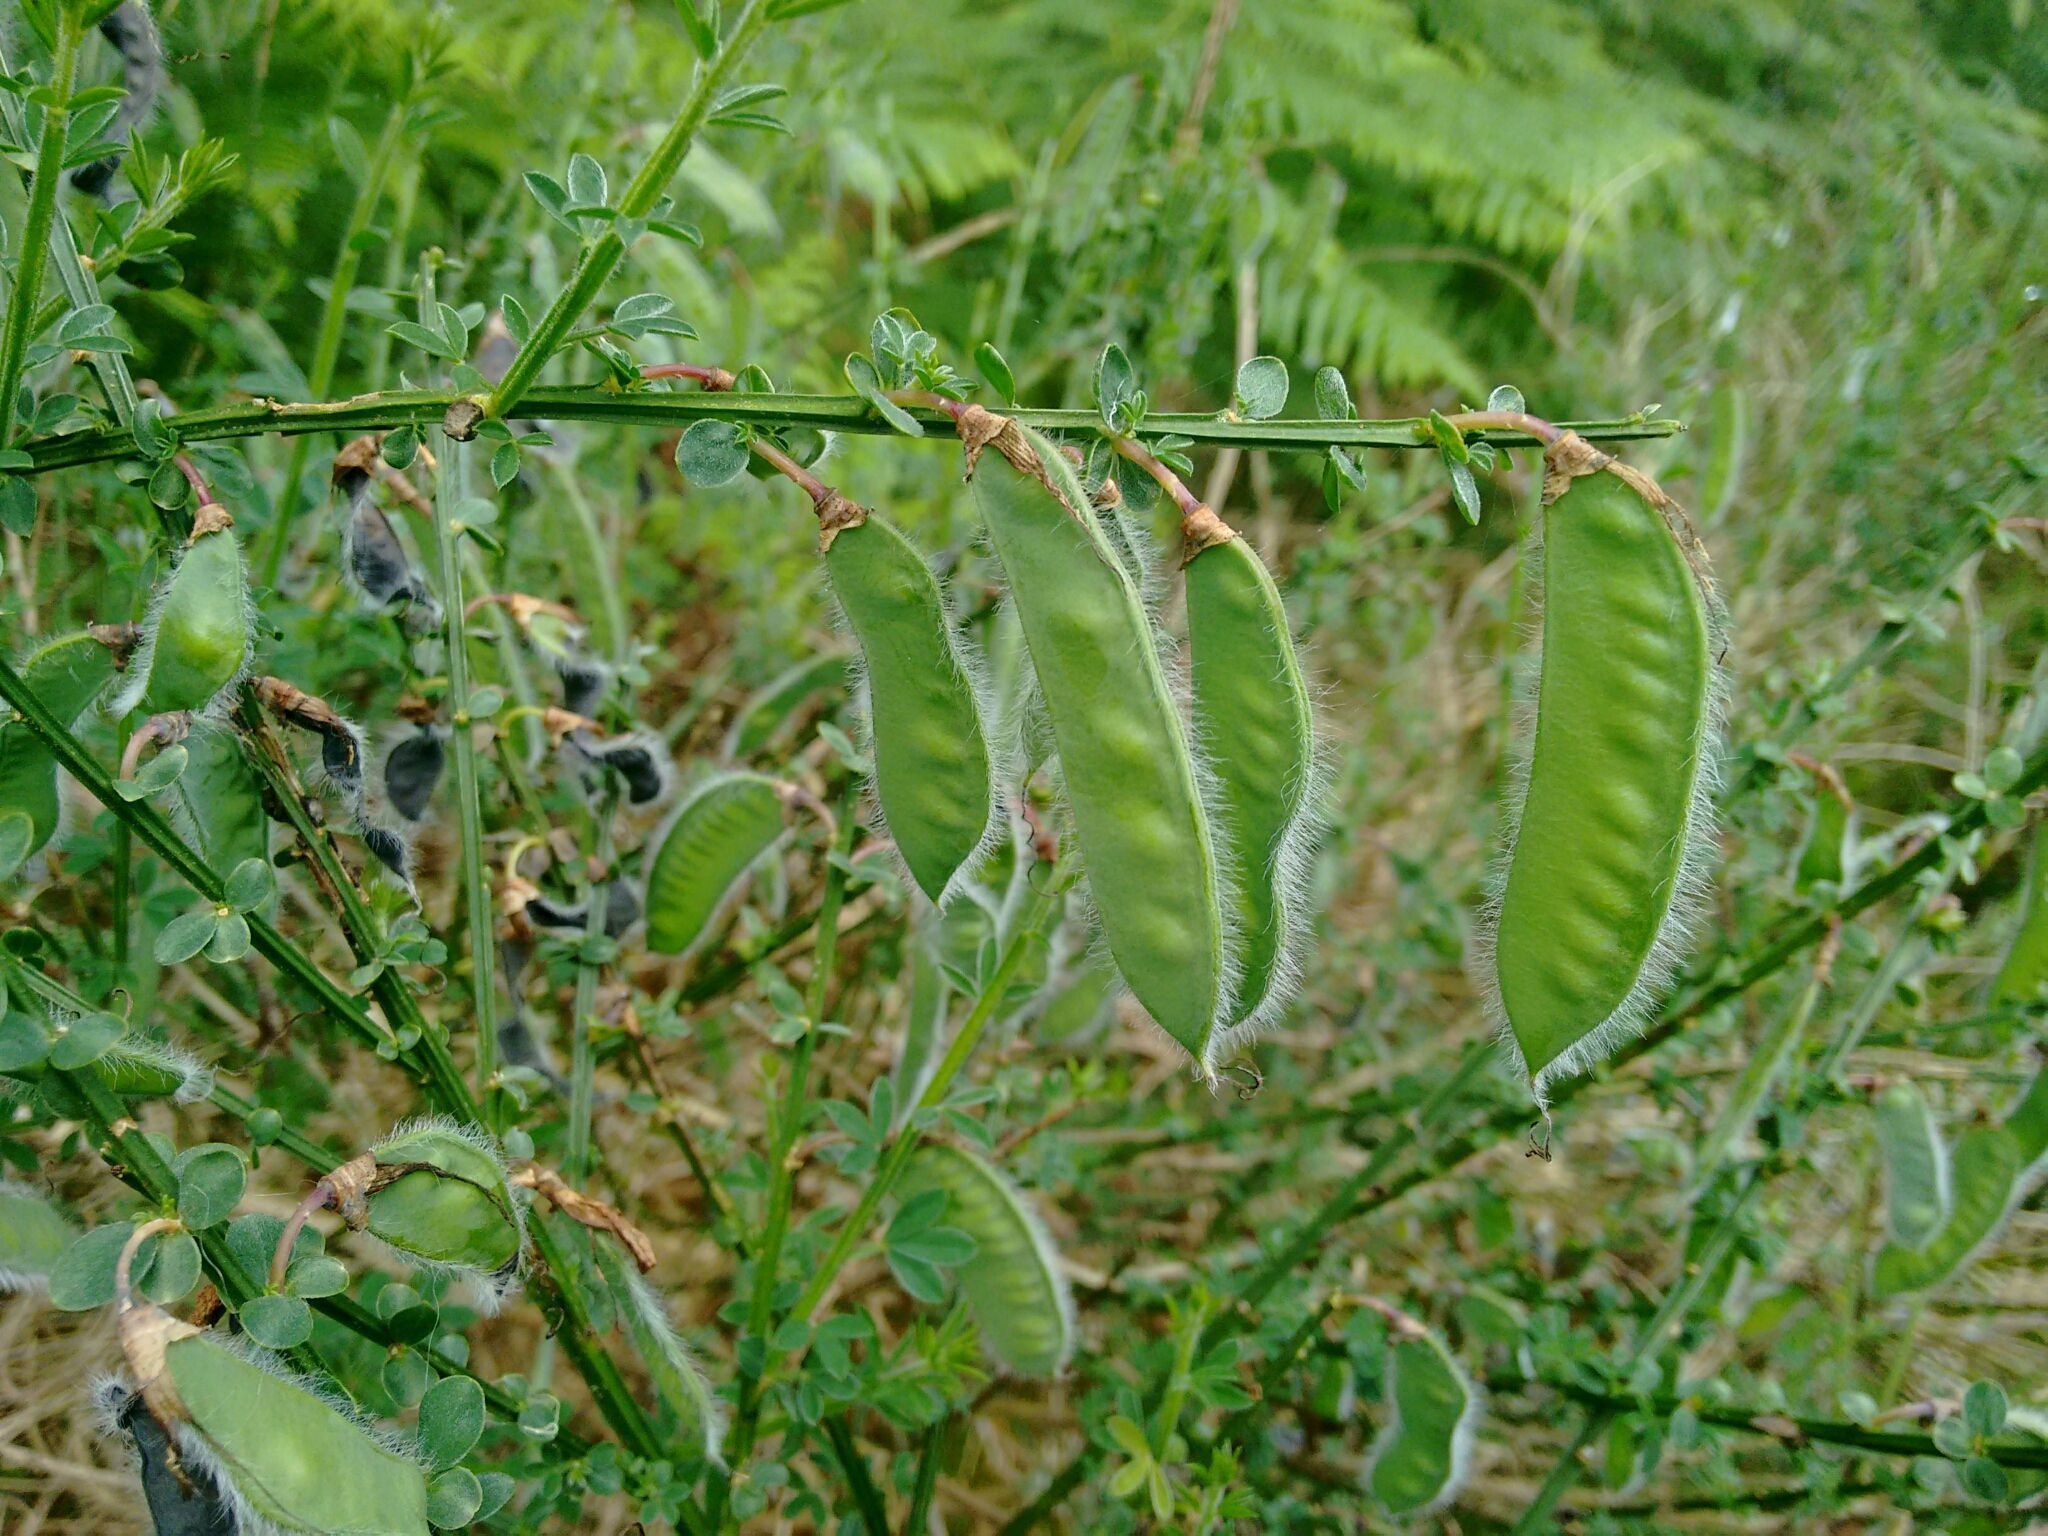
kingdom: Plantae
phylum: Tracheophyta
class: Magnoliopsida
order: Fabales
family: Fabaceae
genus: Cytisus
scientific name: Cytisus scoparius
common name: Scotch broom
